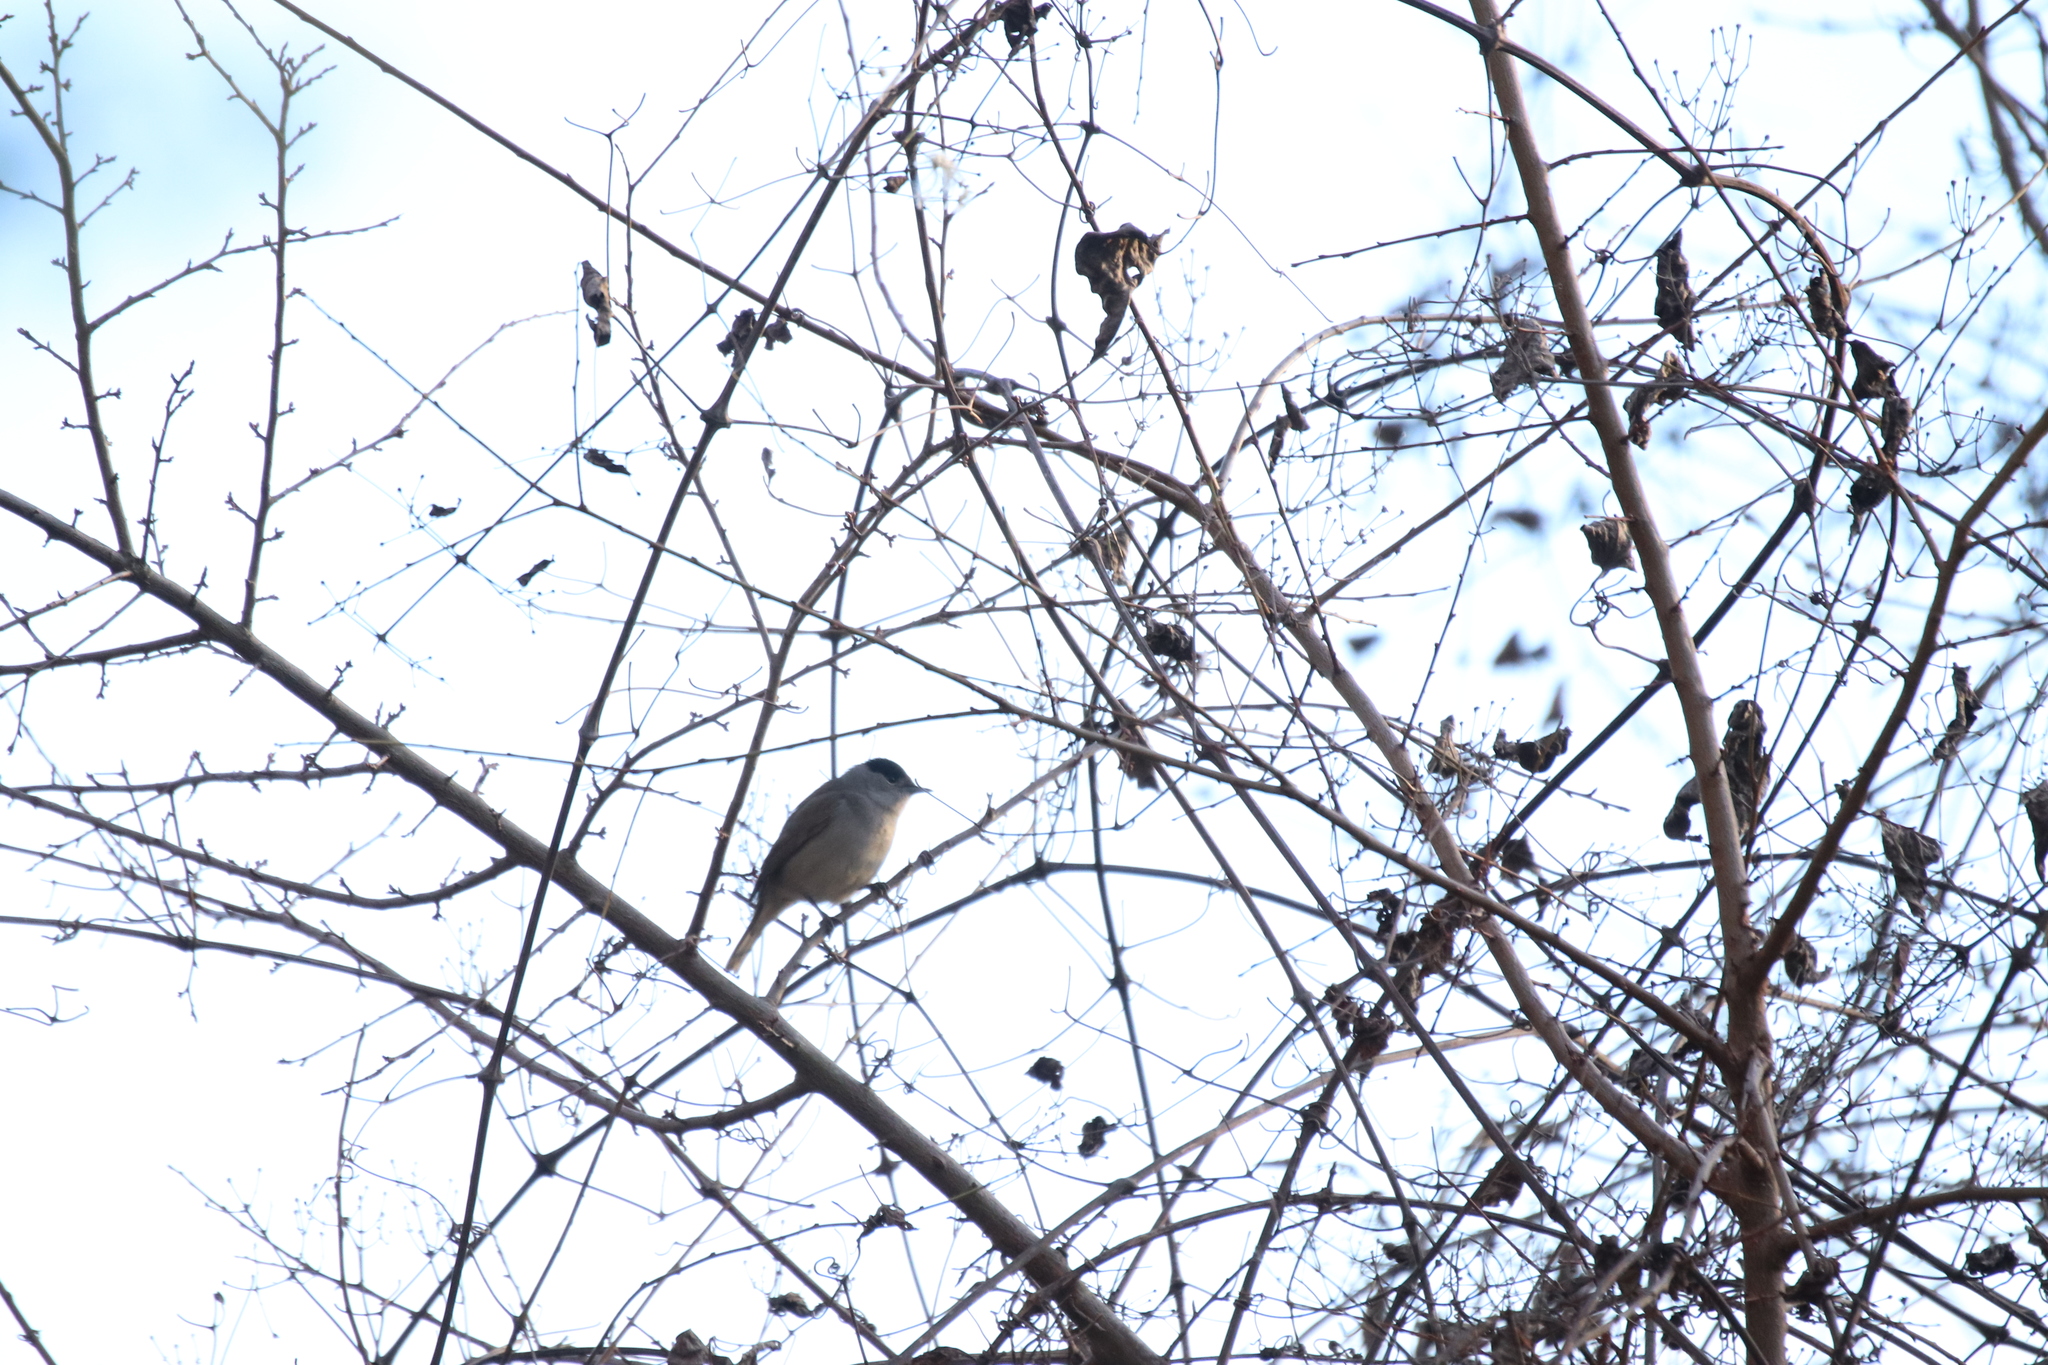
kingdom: Animalia
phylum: Chordata
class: Aves
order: Passeriformes
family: Sylviidae
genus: Sylvia
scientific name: Sylvia atricapilla
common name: Eurasian blackcap
